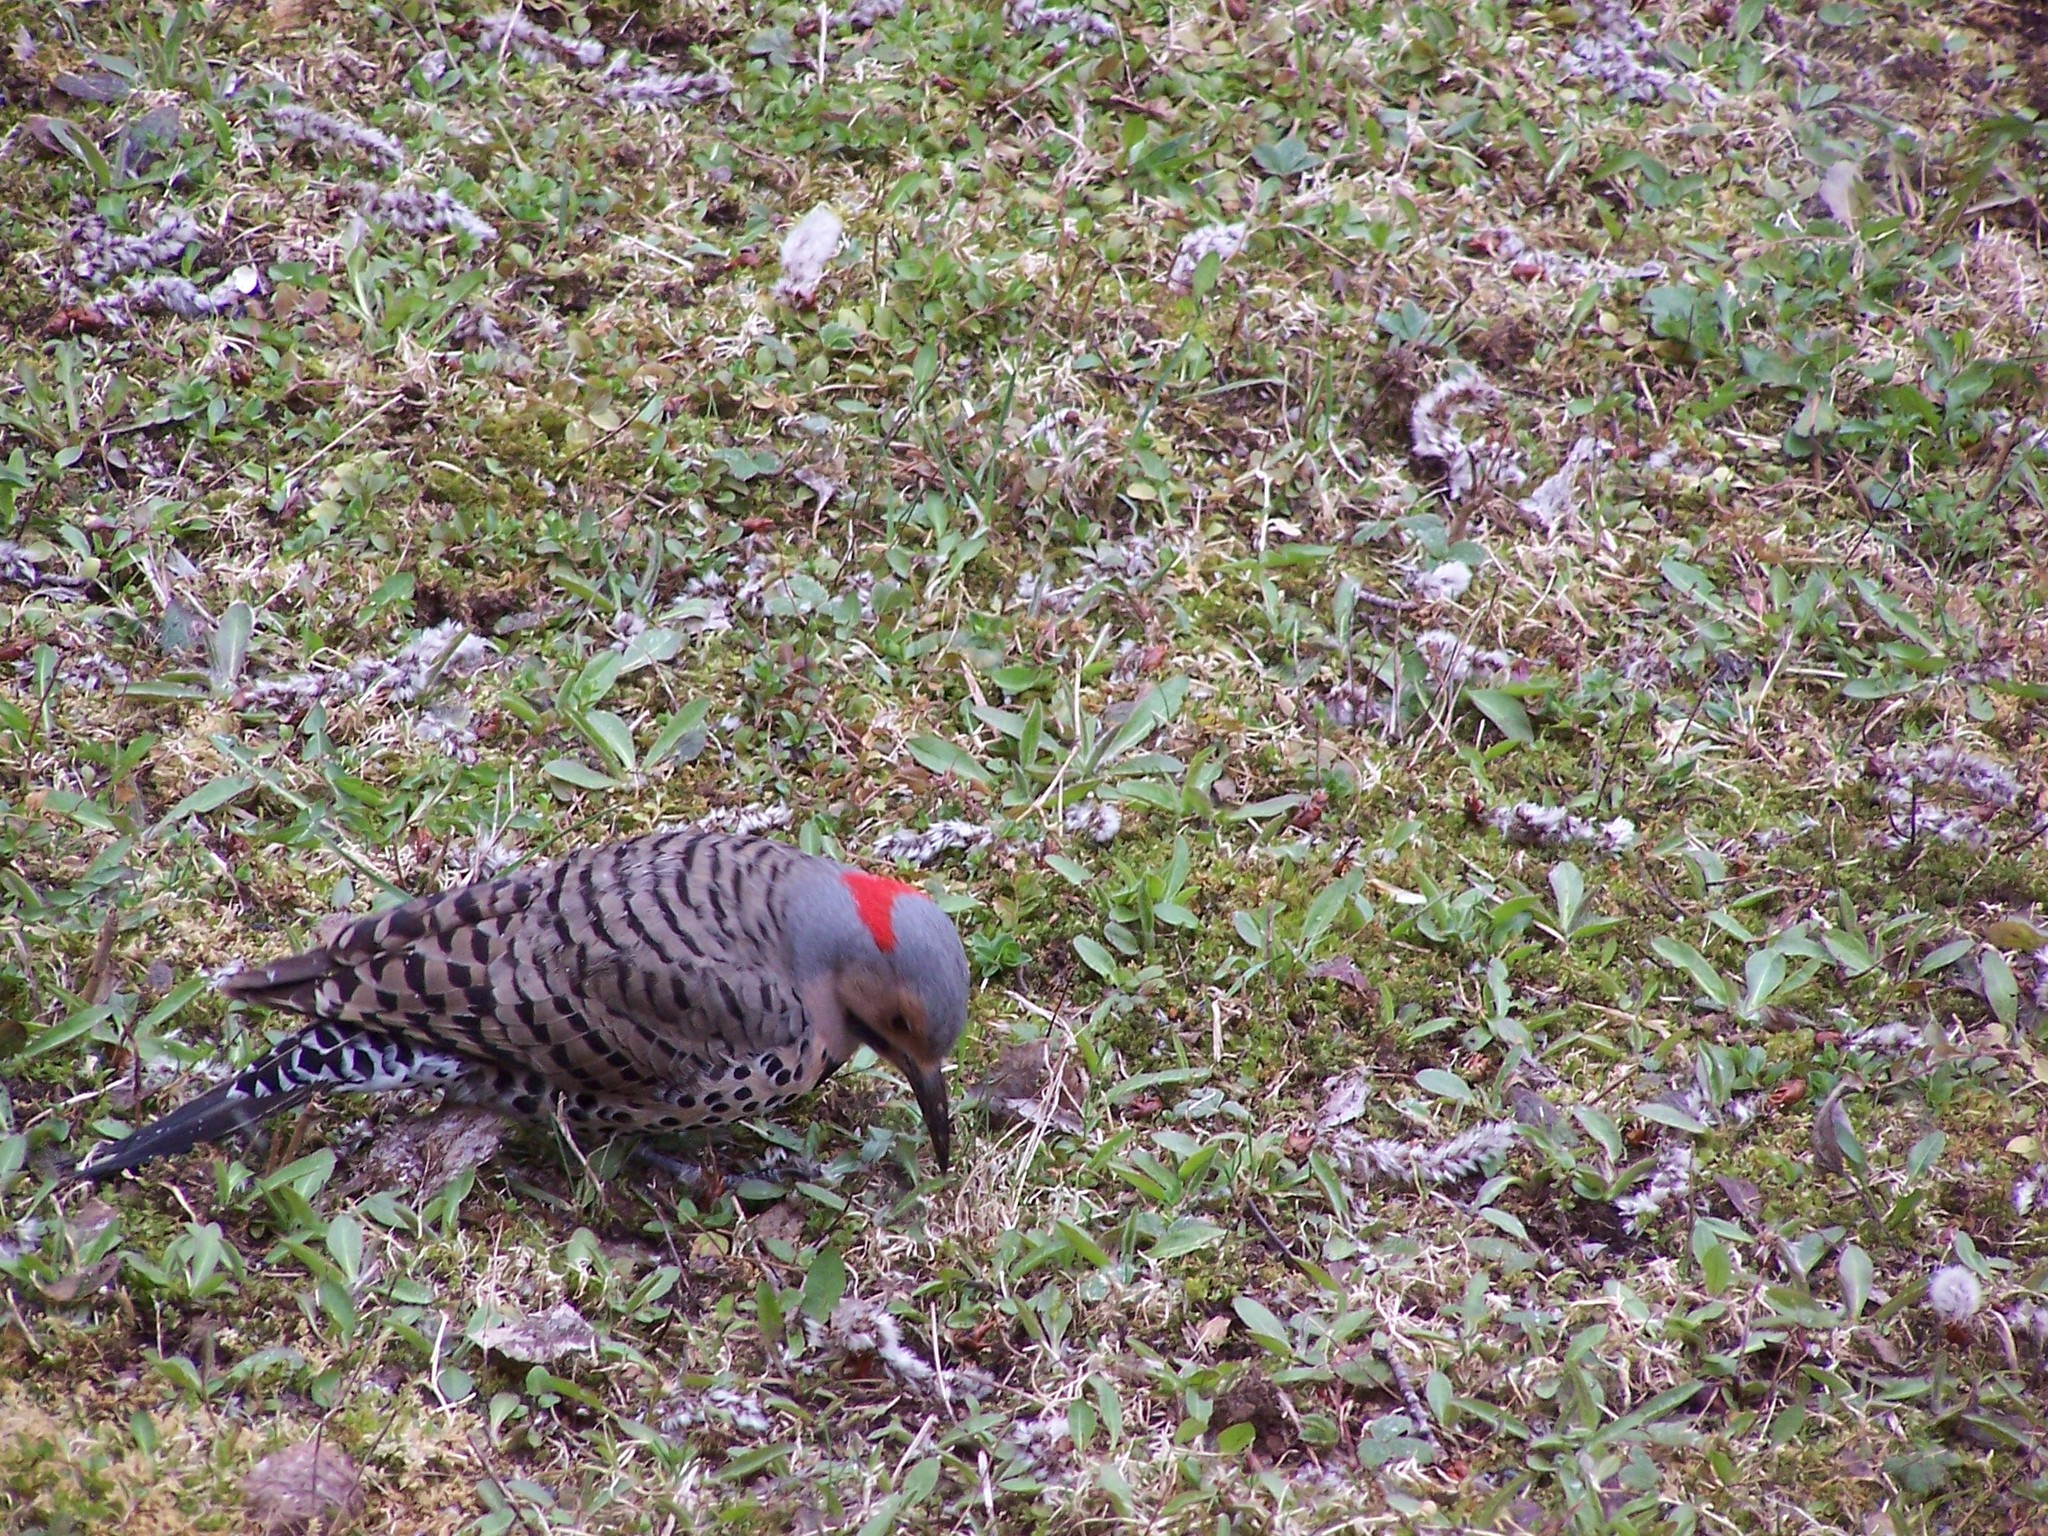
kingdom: Animalia
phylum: Chordata
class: Aves
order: Piciformes
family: Picidae
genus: Colaptes
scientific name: Colaptes auratus
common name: Northern flicker
